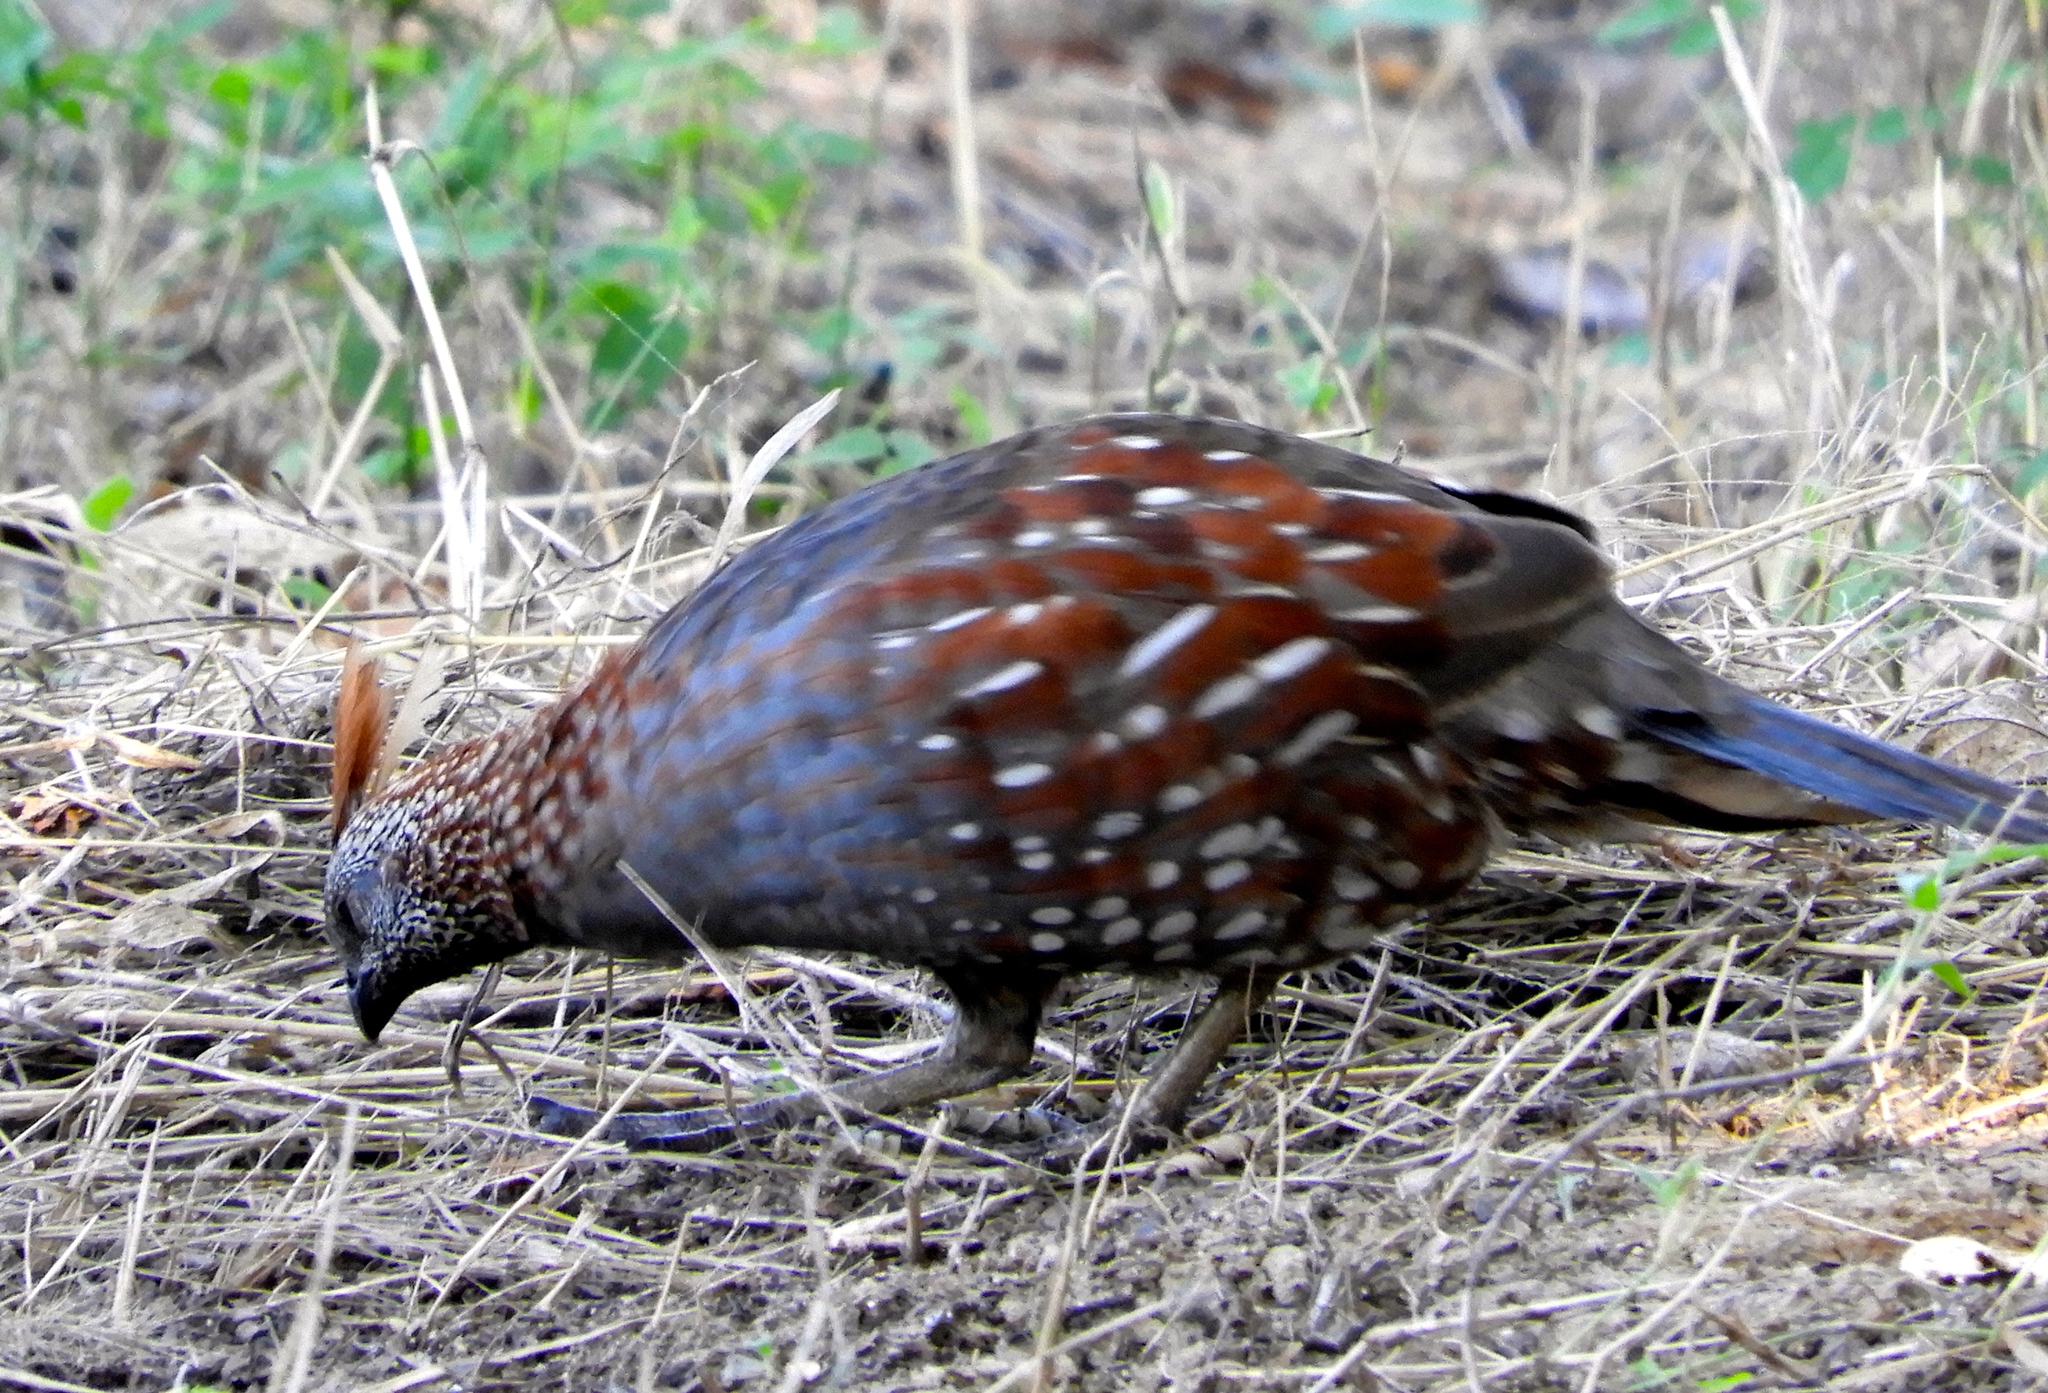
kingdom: Animalia
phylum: Chordata
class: Aves
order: Galliformes
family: Odontophoridae
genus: Callipepla
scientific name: Callipepla douglasii
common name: Elegant quail
